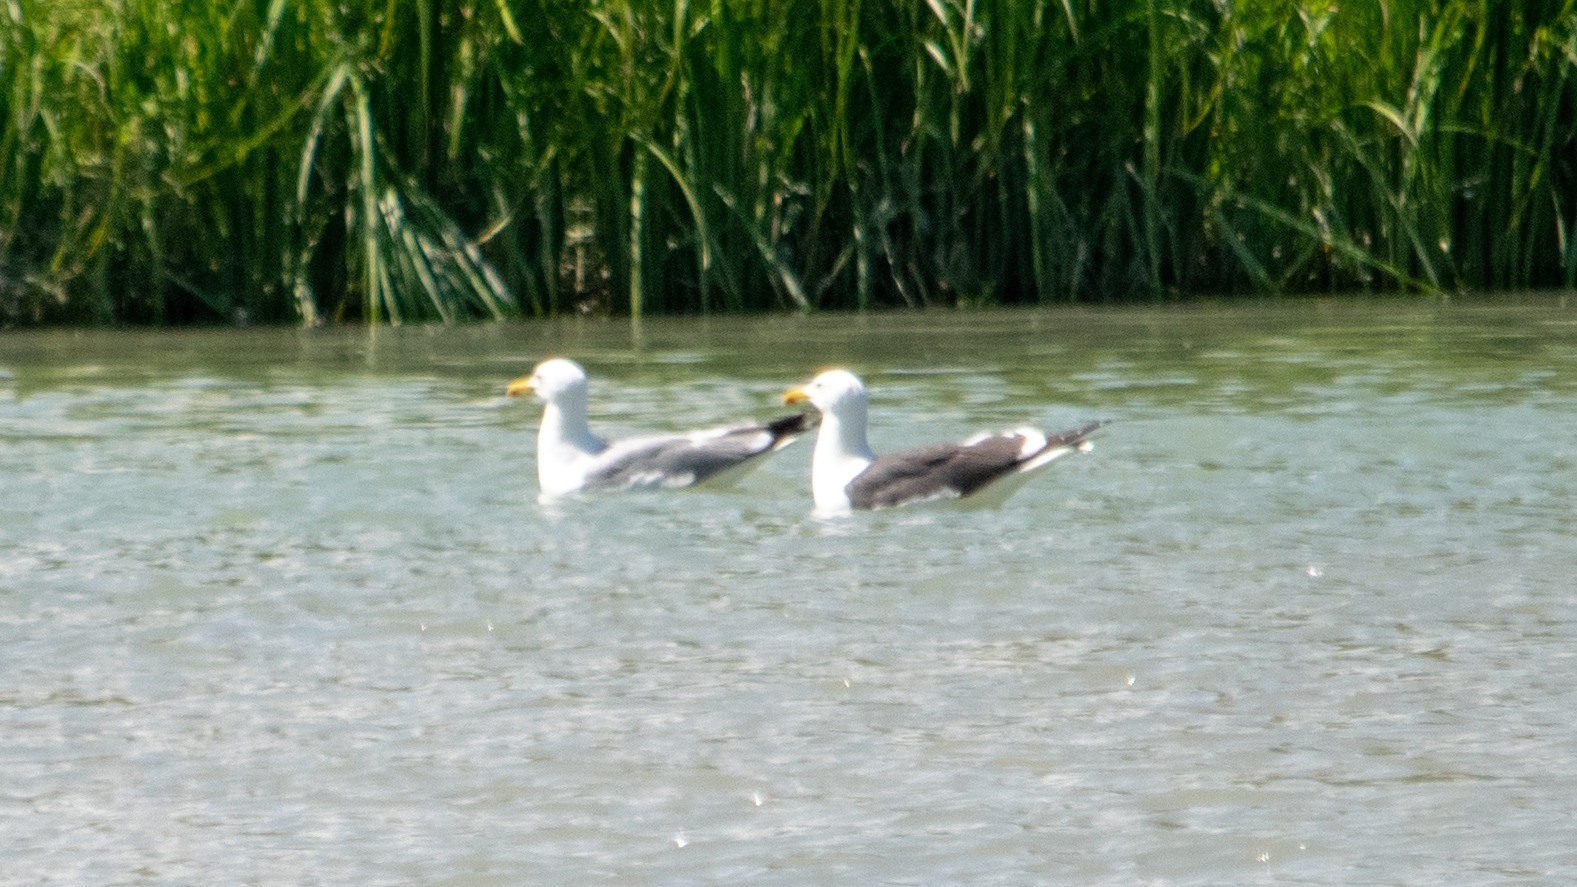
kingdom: Animalia
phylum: Chordata
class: Aves
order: Charadriiformes
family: Laridae
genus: Larus
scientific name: Larus michahellis
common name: Yellow-legged gull
